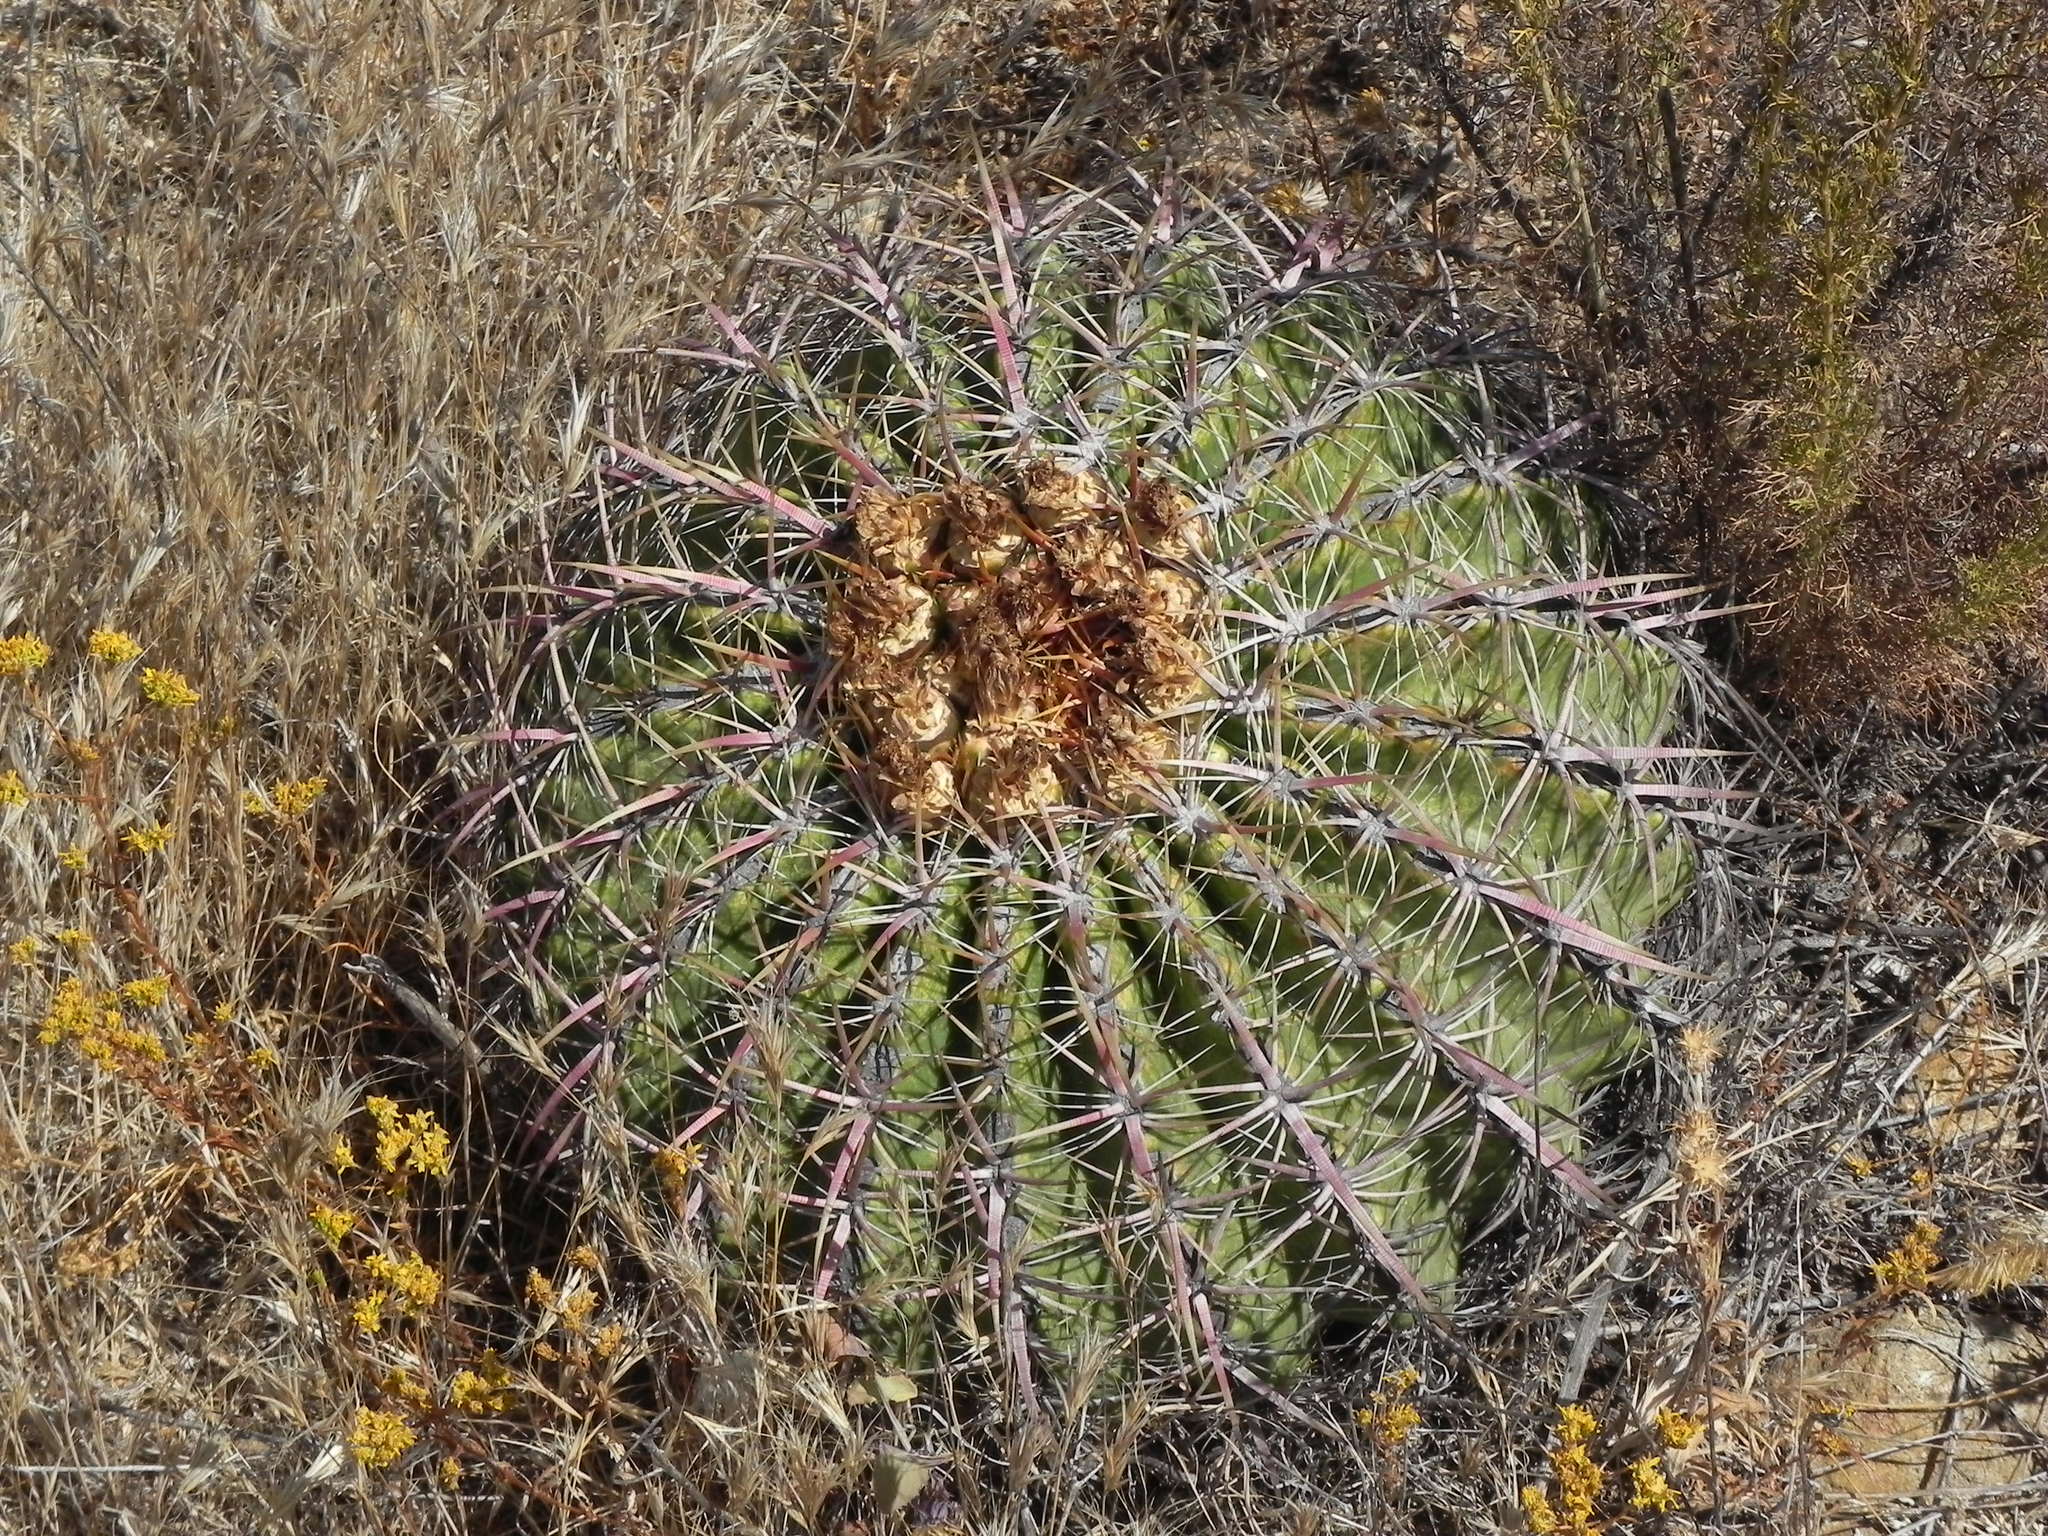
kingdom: Plantae
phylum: Tracheophyta
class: Magnoliopsida
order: Caryophyllales
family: Cactaceae
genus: Ferocactus
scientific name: Ferocactus viridescens
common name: San diego barrel cactus
